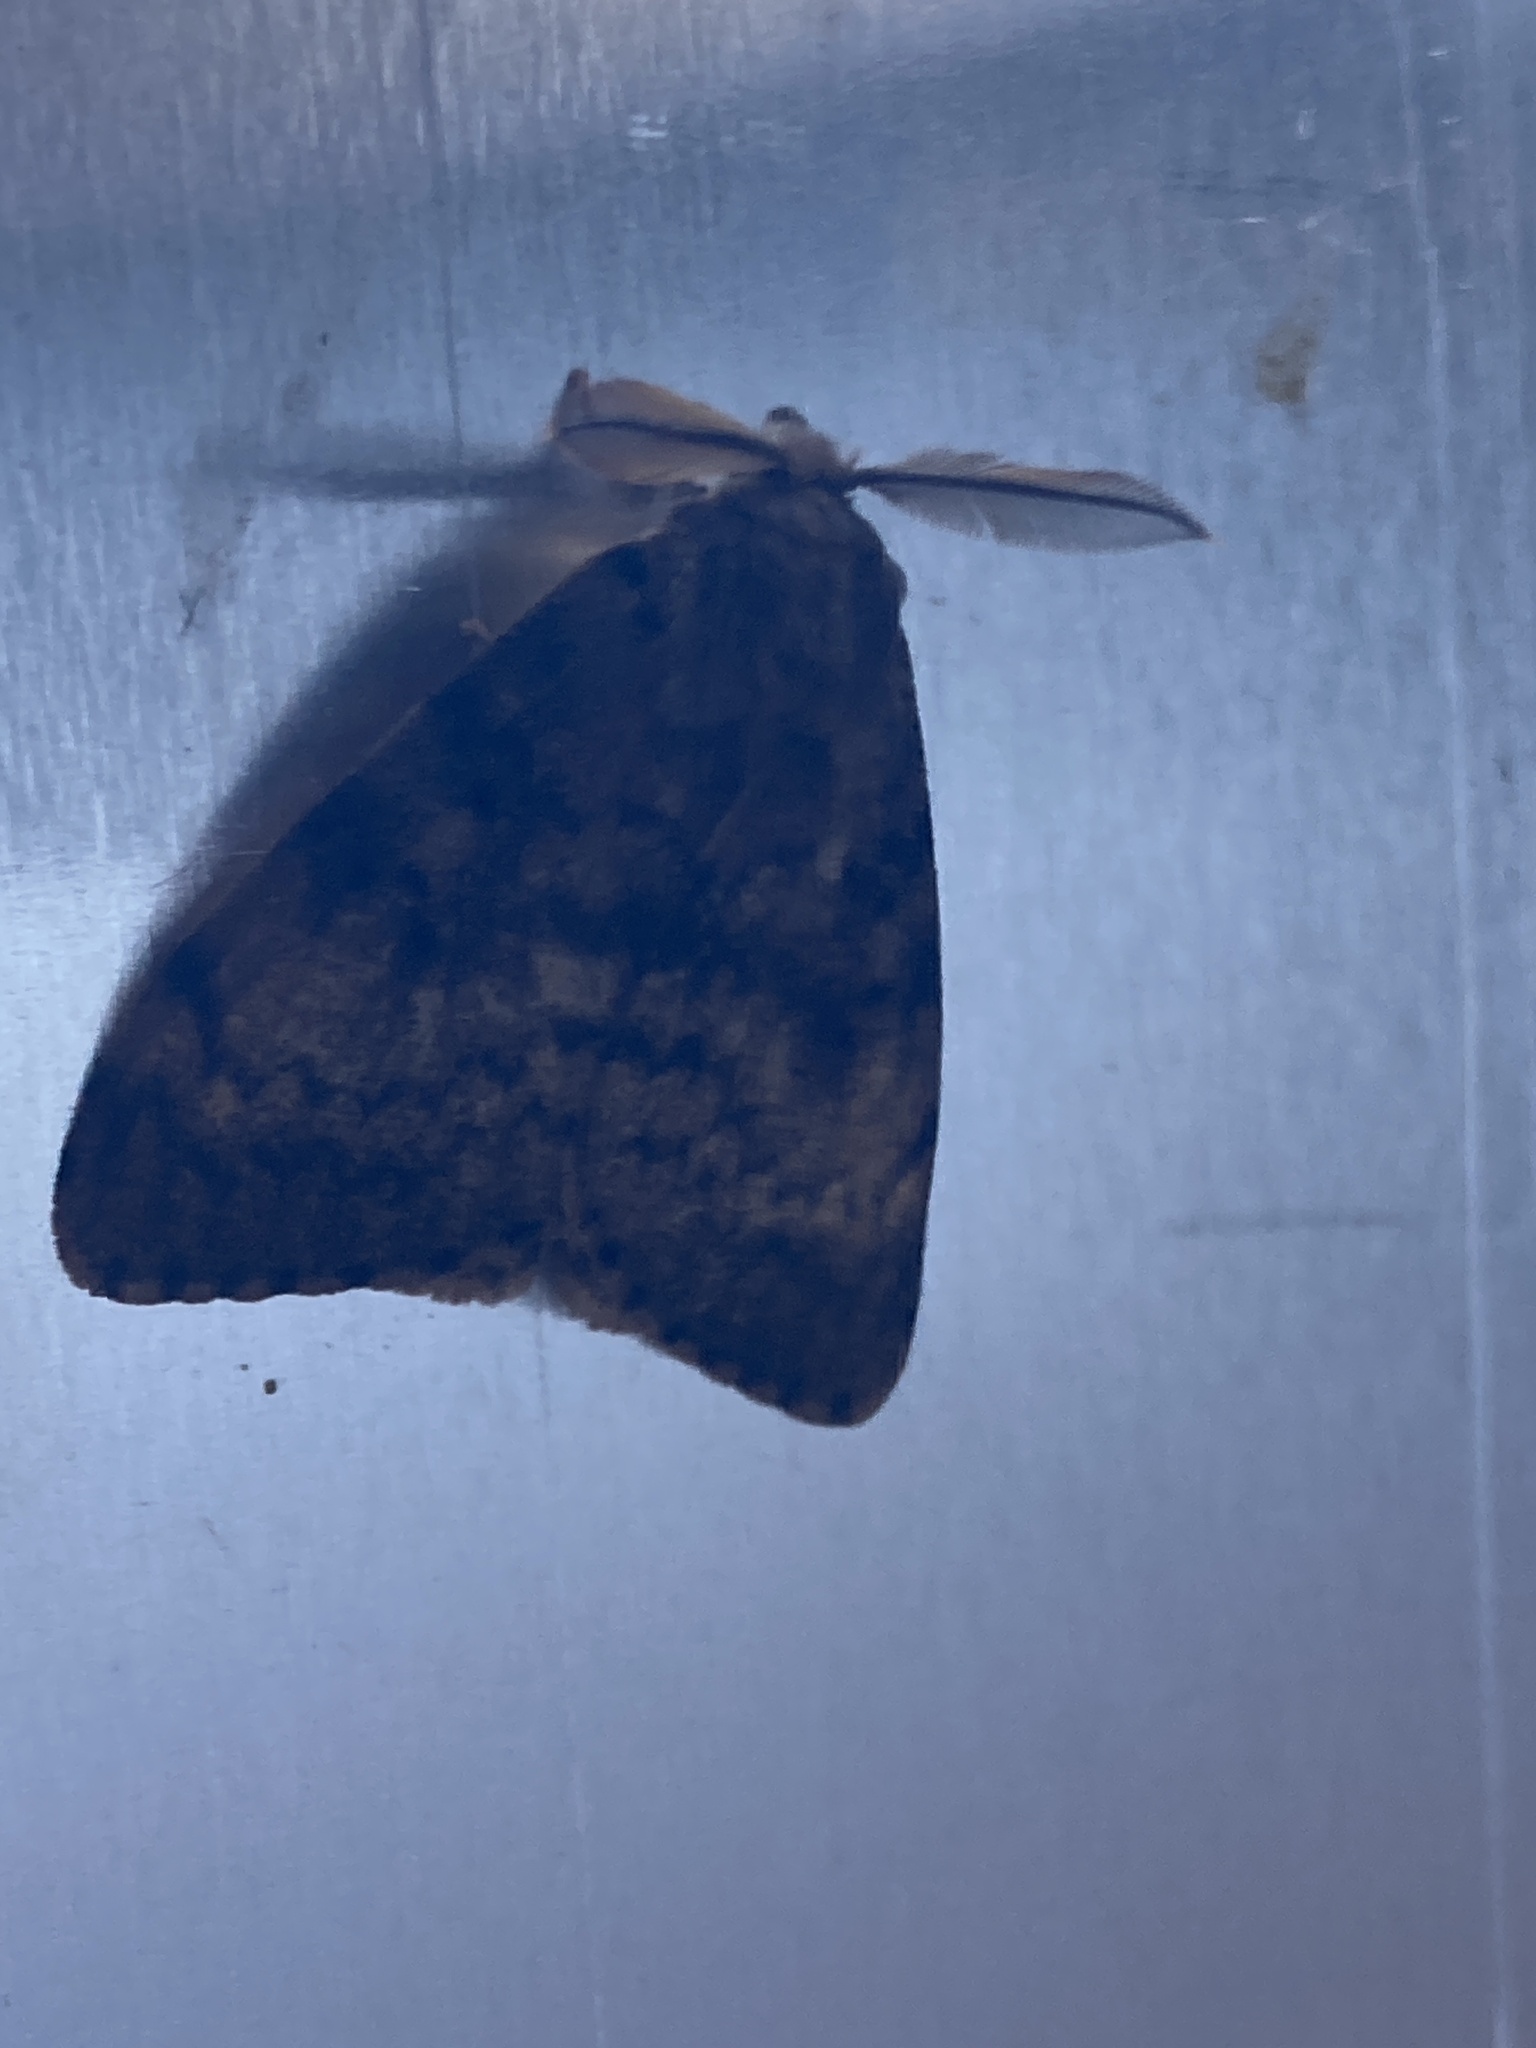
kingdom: Animalia
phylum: Arthropoda
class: Insecta
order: Lepidoptera
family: Erebidae
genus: Lymantria
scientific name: Lymantria dispar
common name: Gypsy moth
